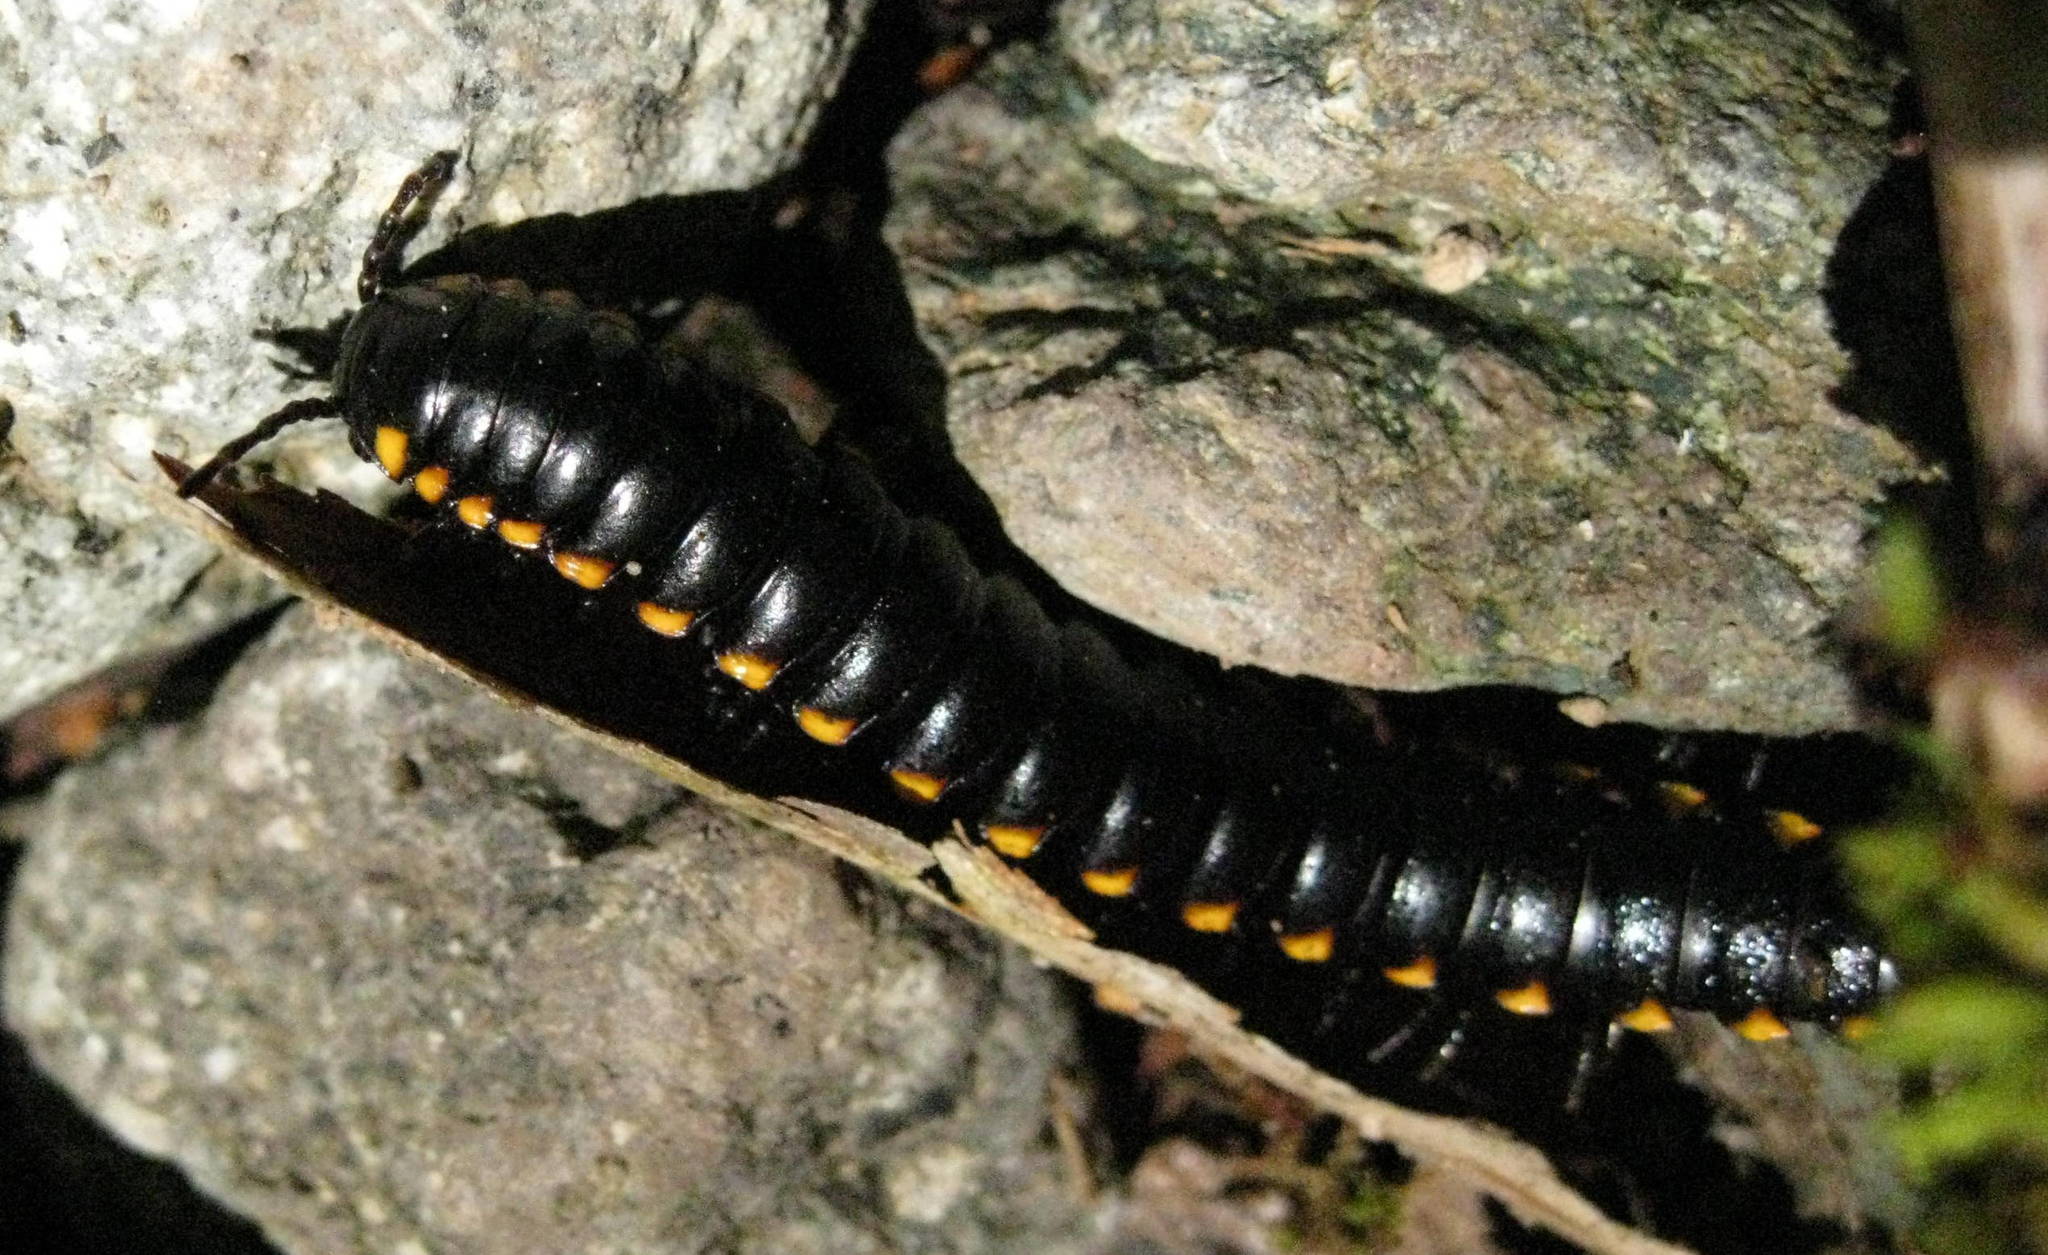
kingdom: Animalia
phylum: Arthropoda
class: Diplopoda
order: Polydesmida
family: Xystodesmidae
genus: Harpaphe
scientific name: Harpaphe haydeniana
